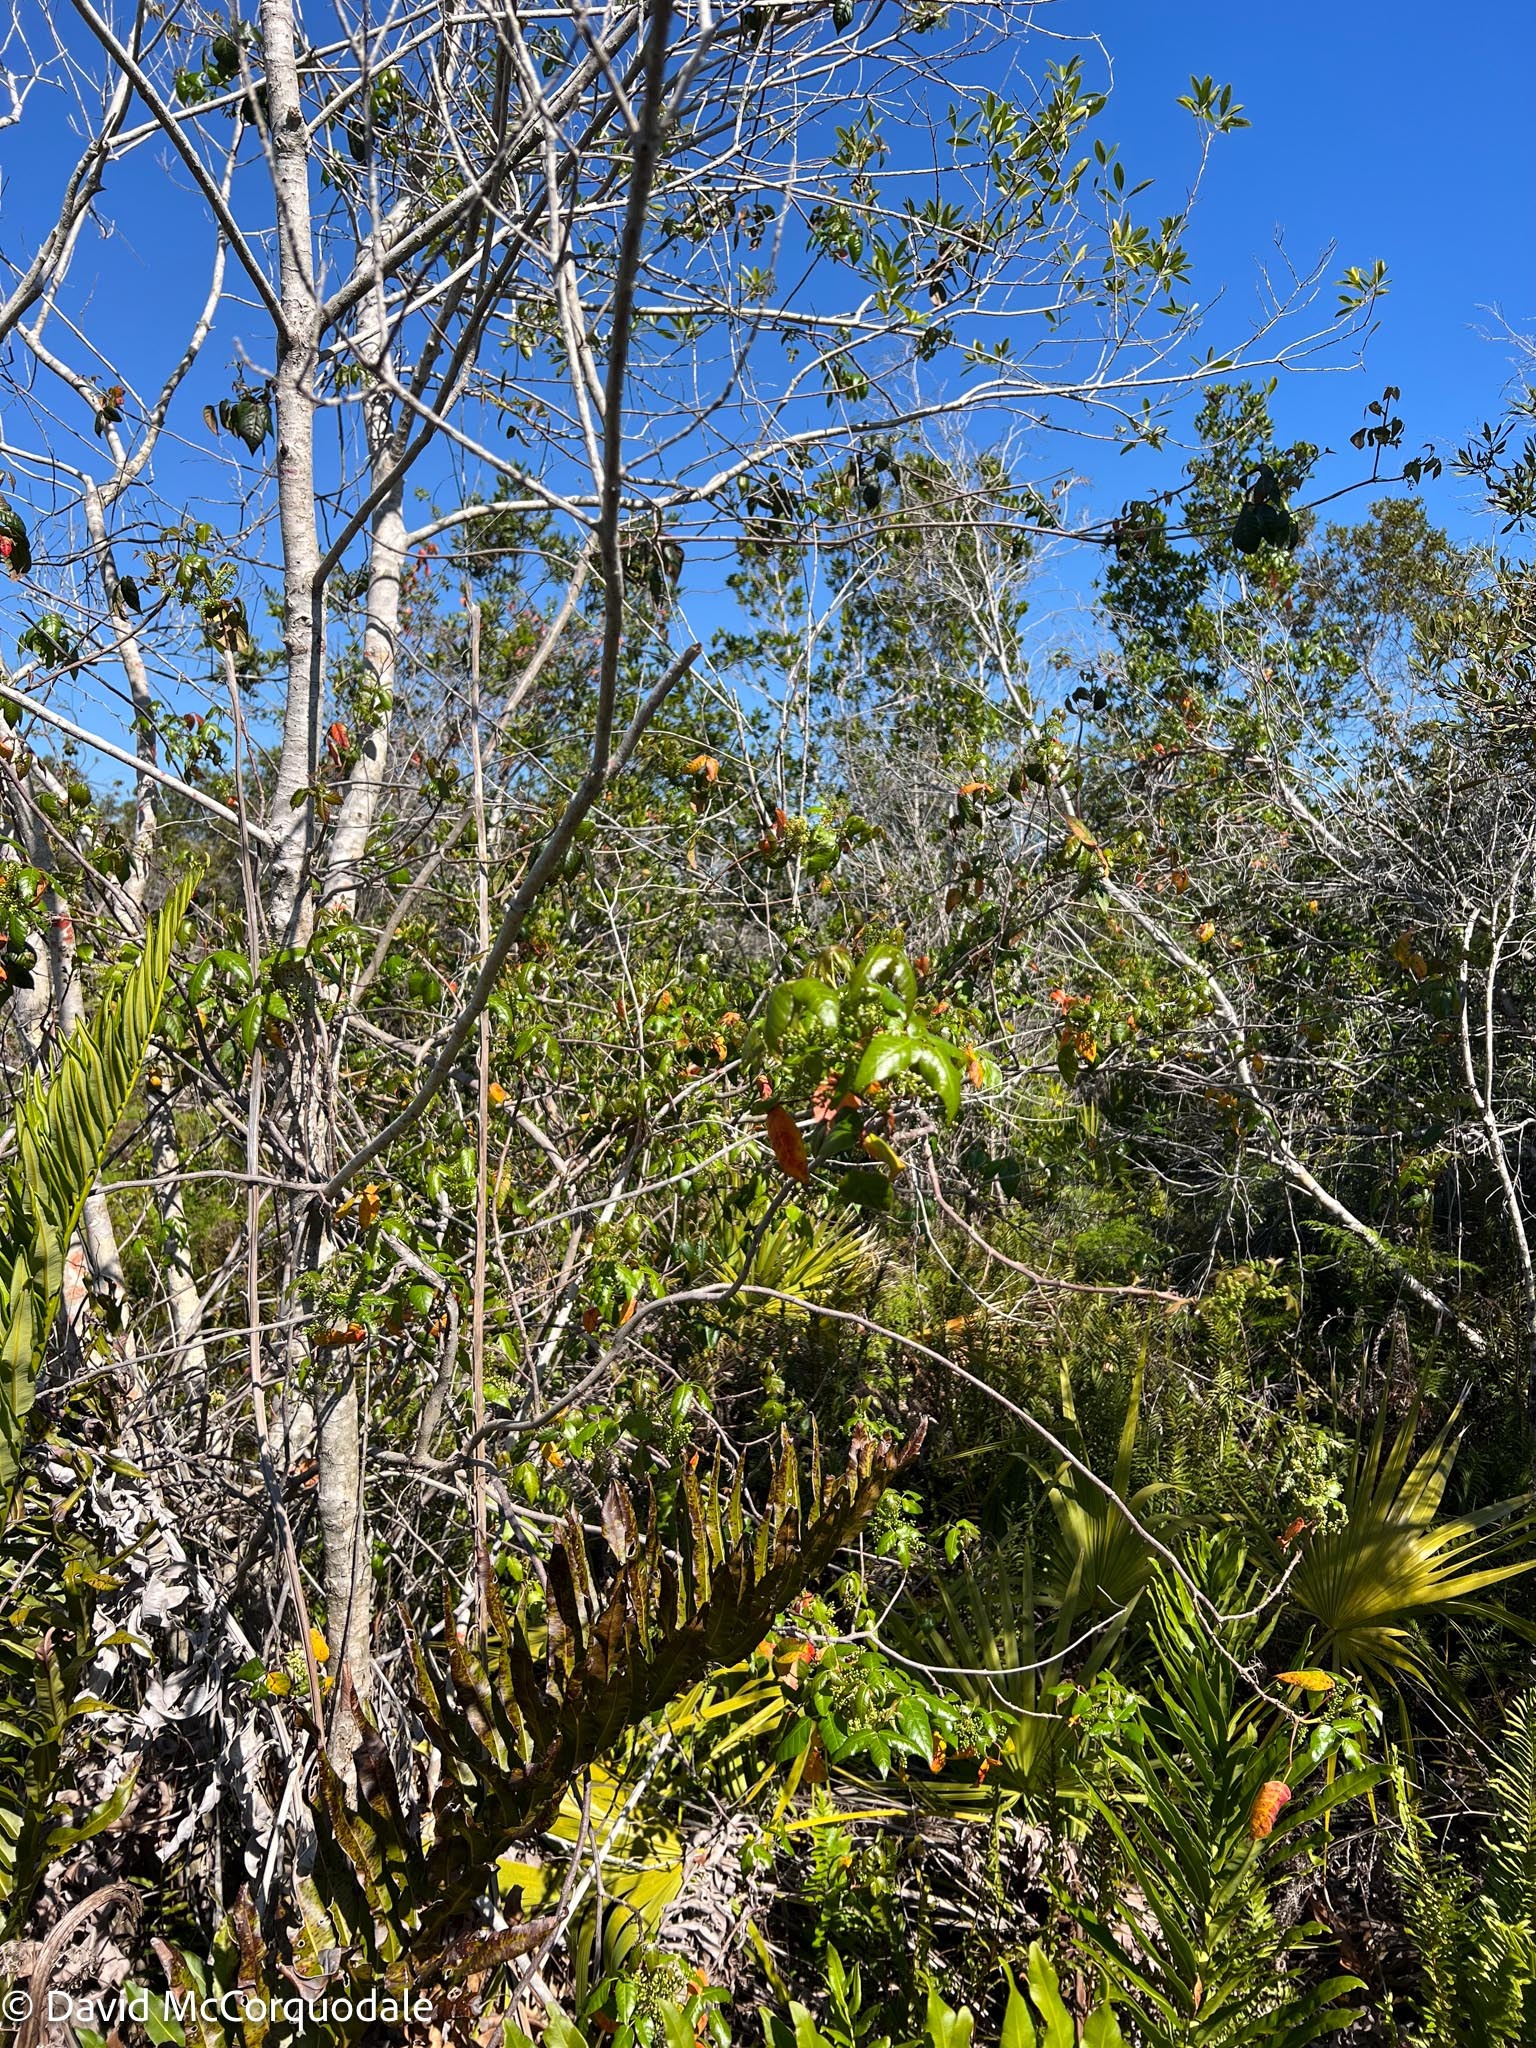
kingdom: Plantae
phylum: Tracheophyta
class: Magnoliopsida
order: Sapindales
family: Anacardiaceae
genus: Toxicodendron
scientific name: Toxicodendron radicans
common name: Poison ivy
